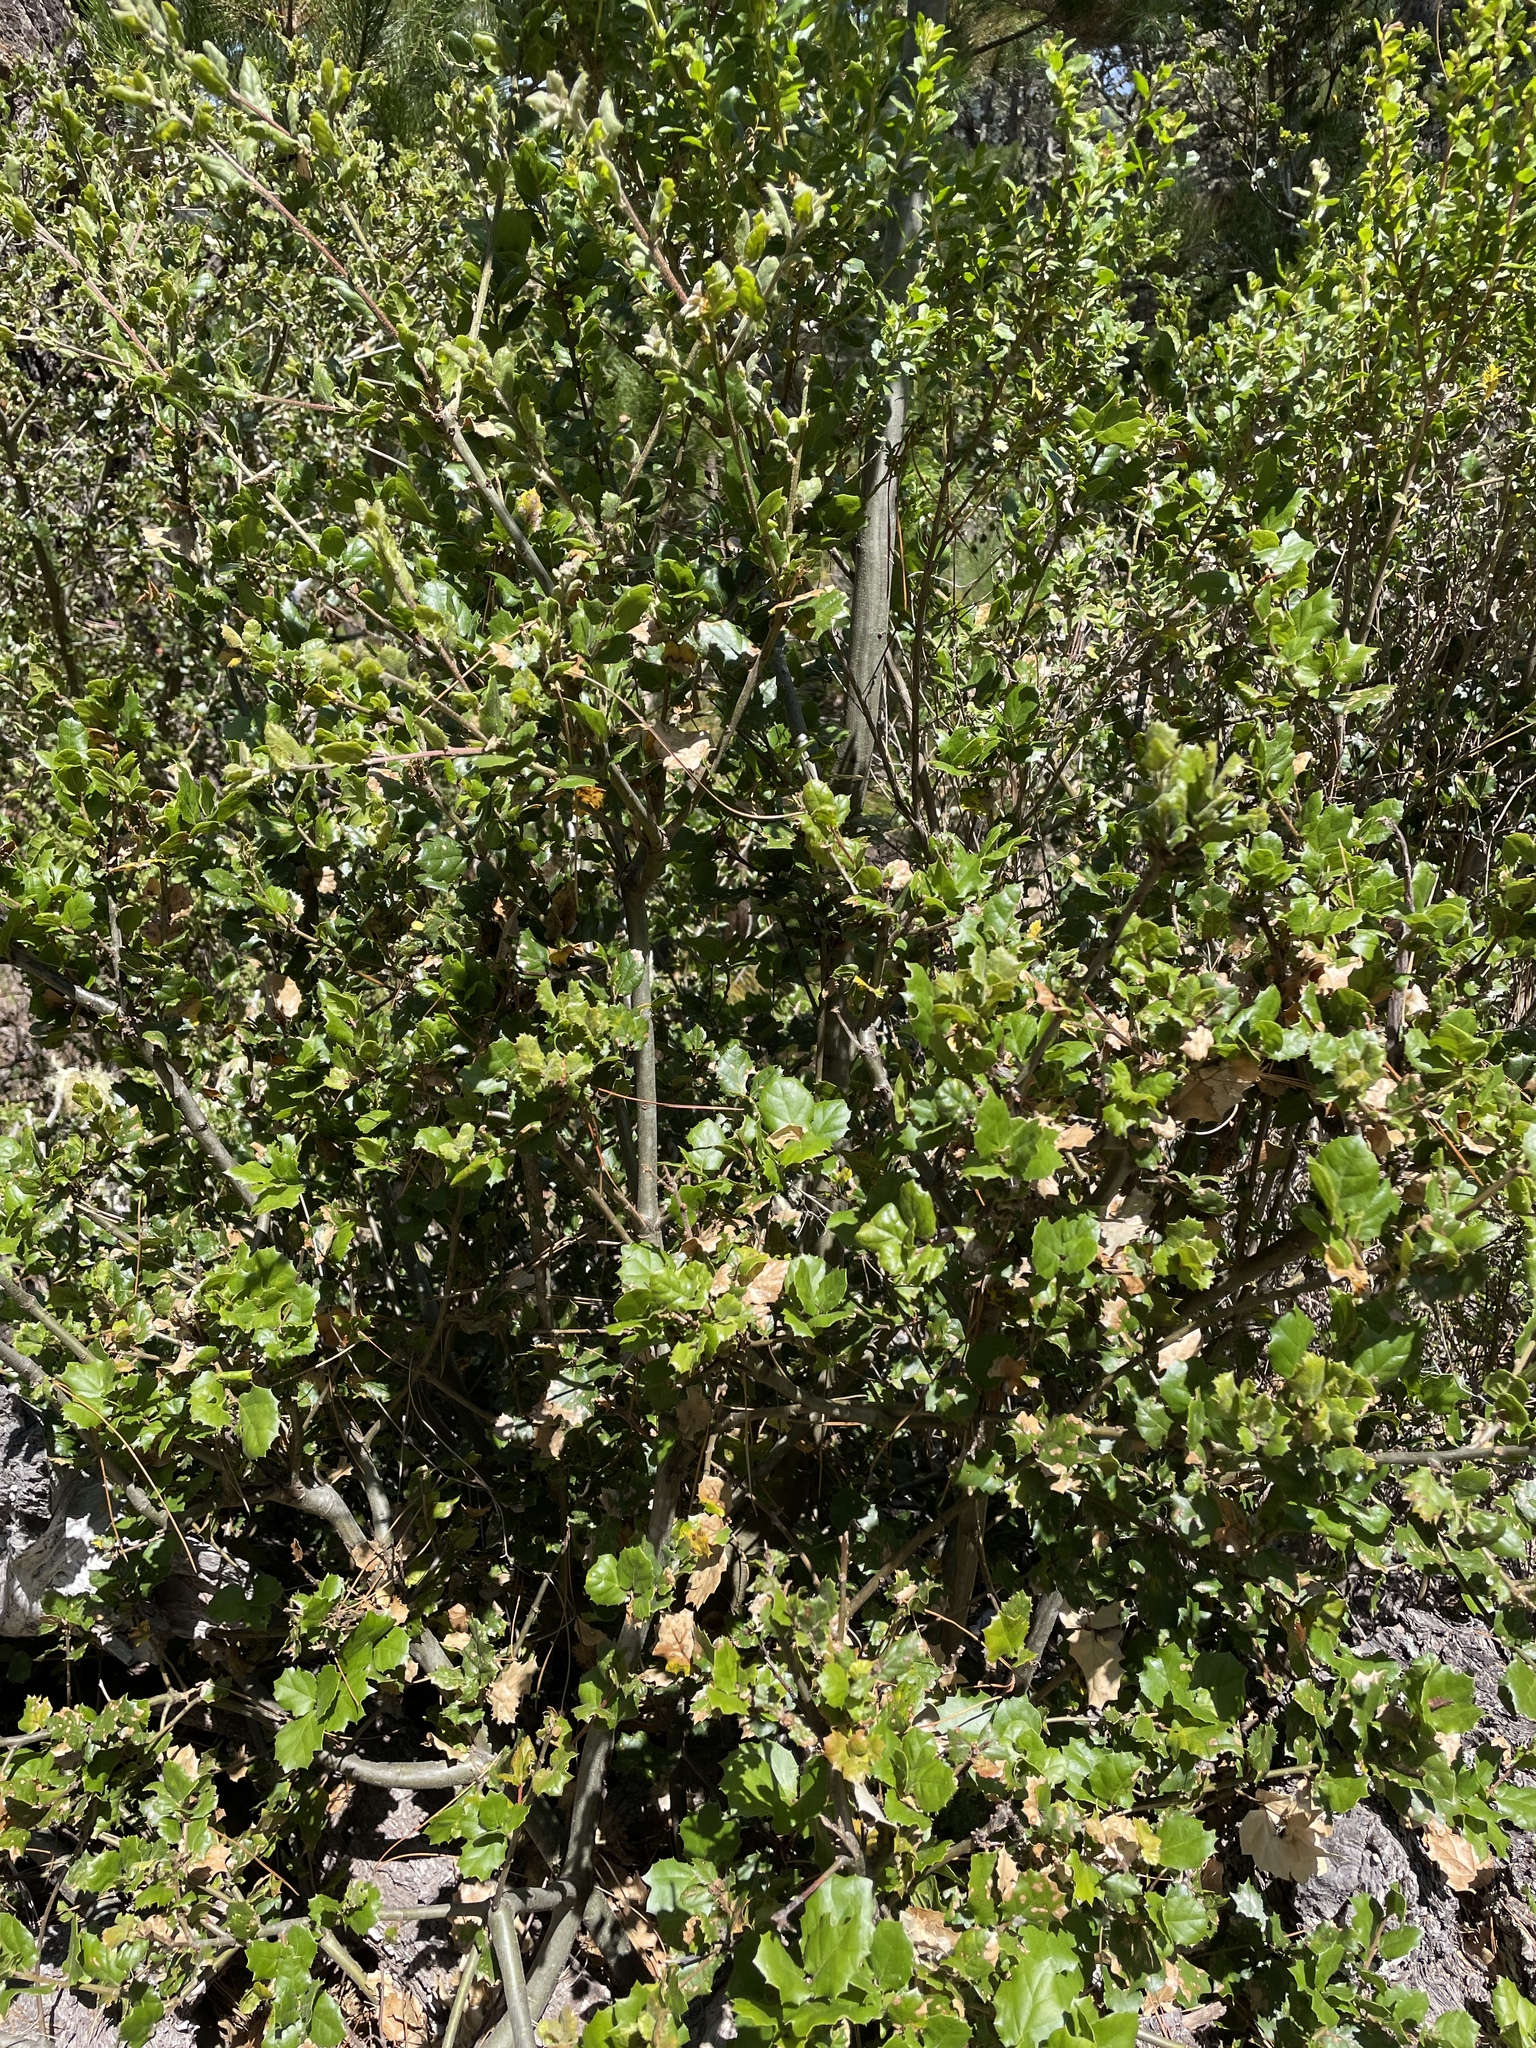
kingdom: Plantae
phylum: Tracheophyta
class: Magnoliopsida
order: Fagales
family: Fagaceae
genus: Quercus
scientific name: Quercus agrifolia
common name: California live oak
